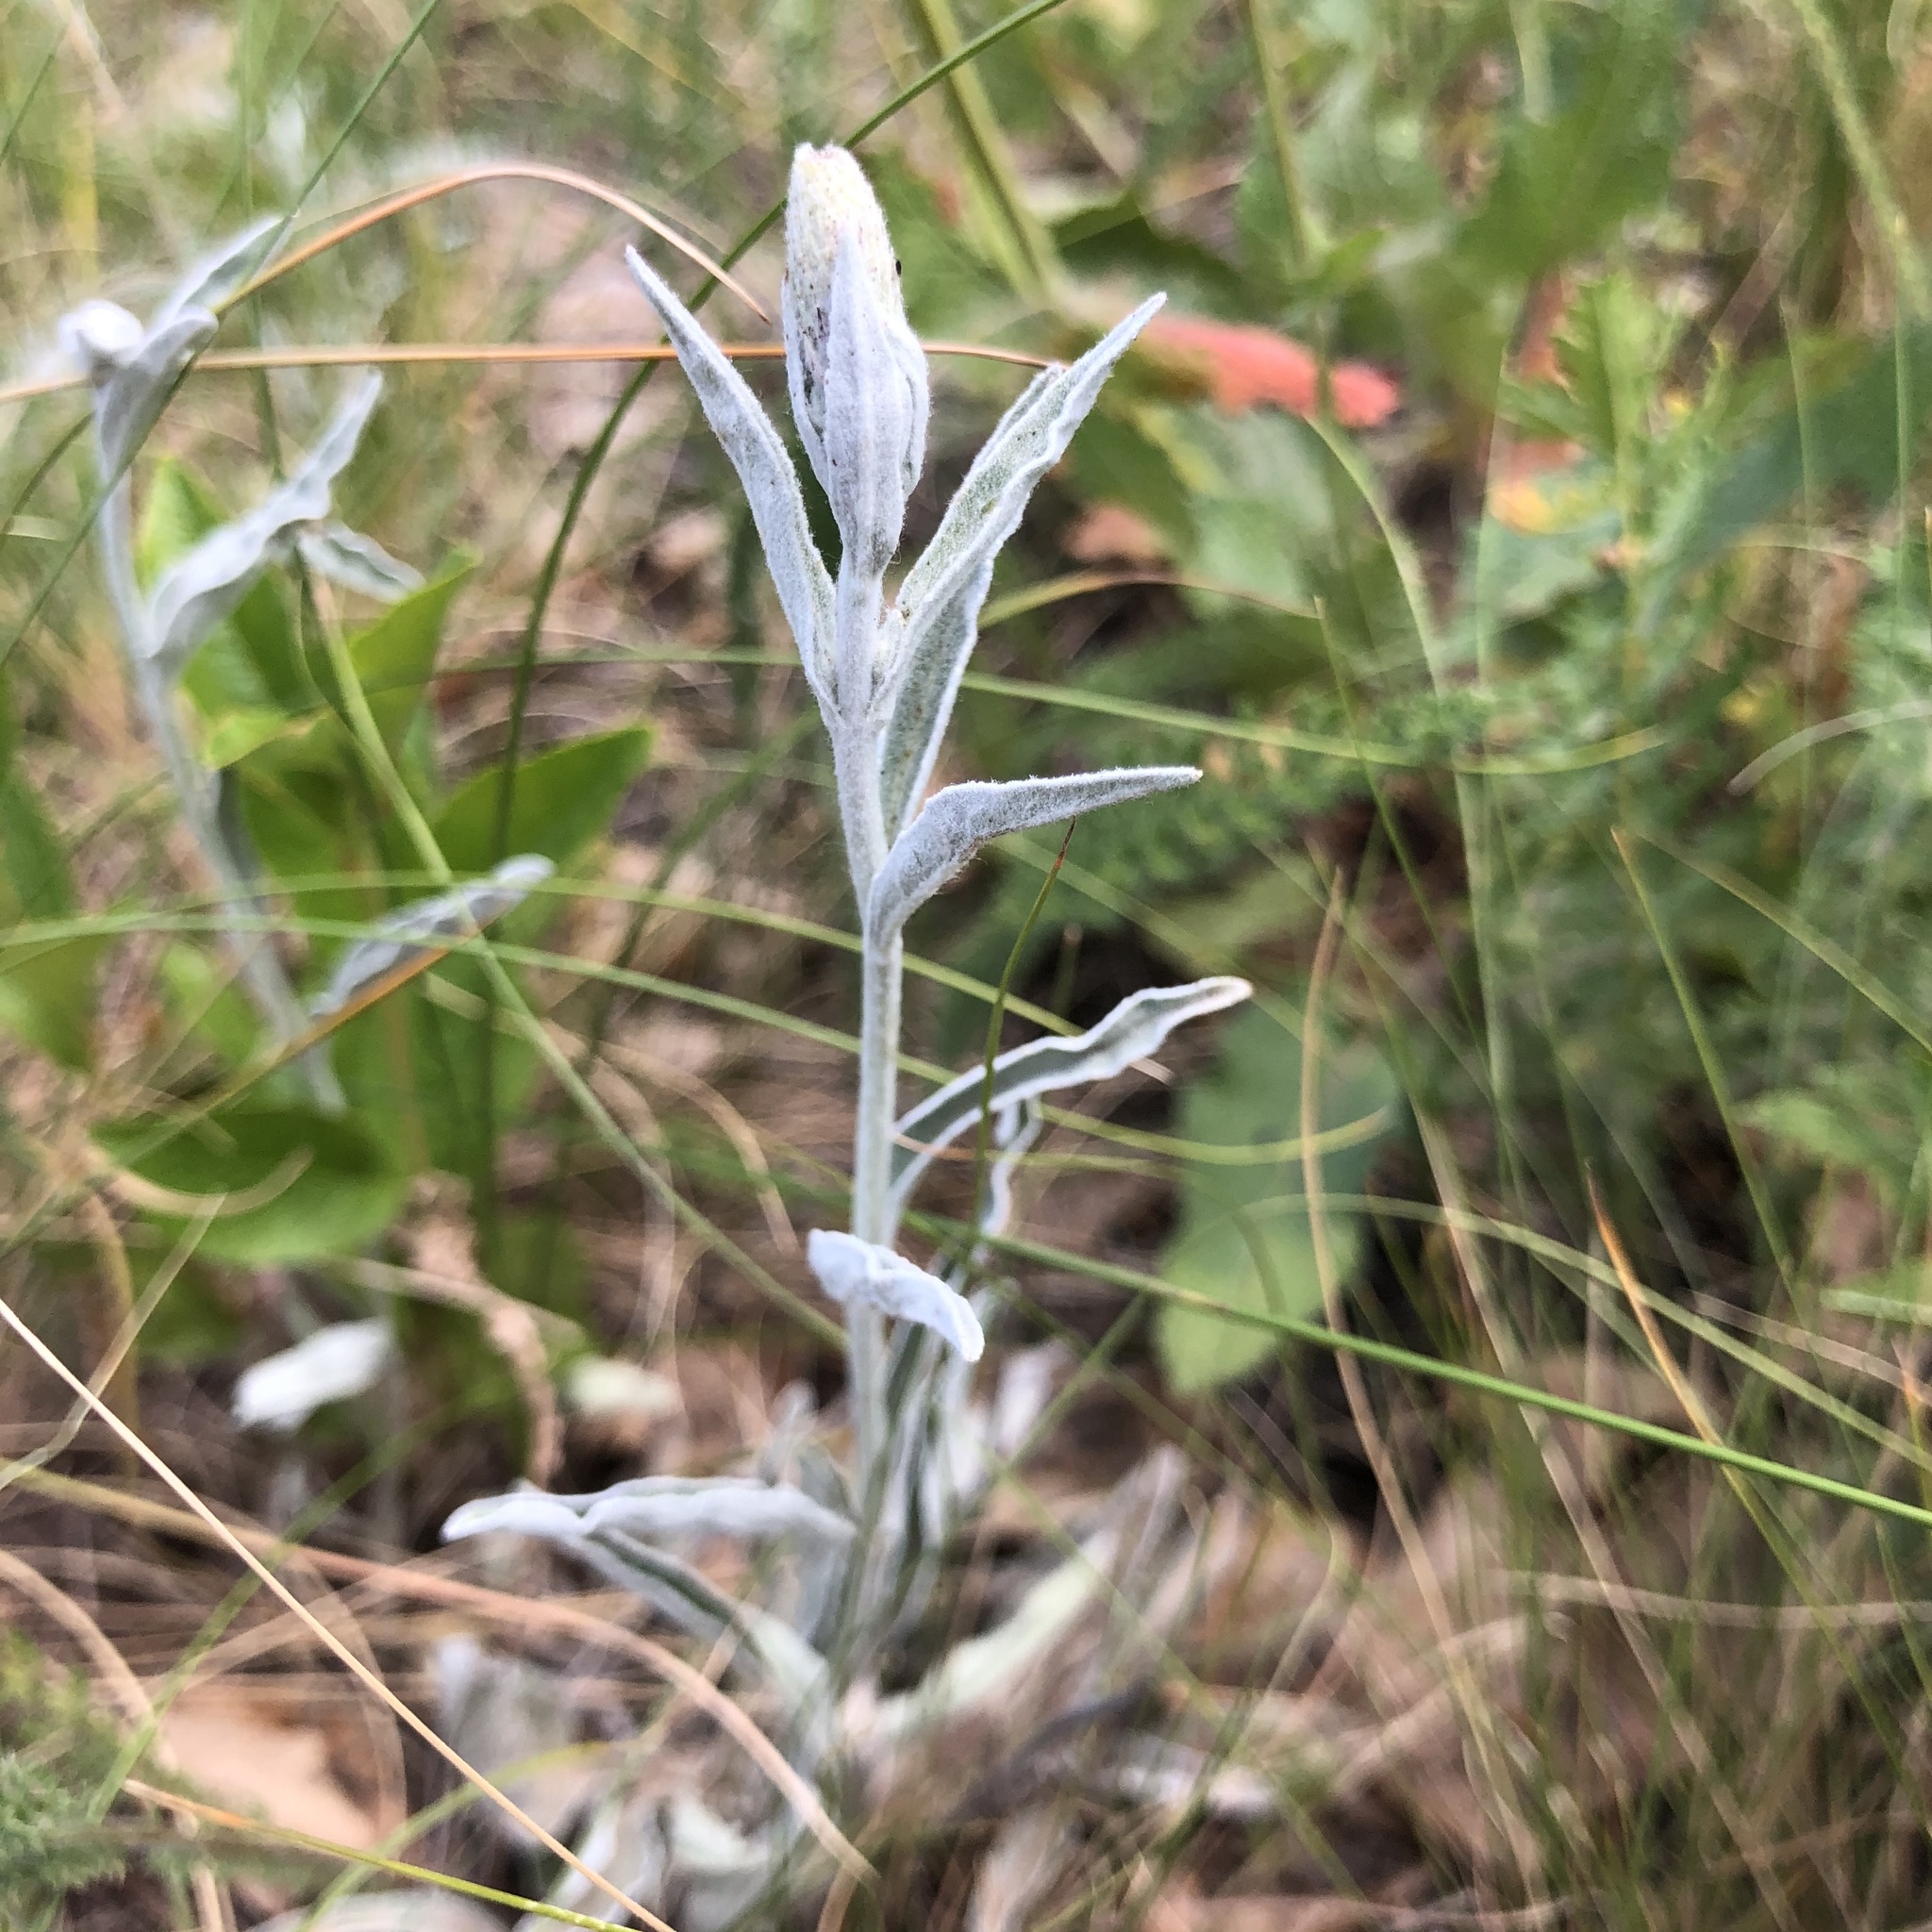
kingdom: Plantae
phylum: Tracheophyta
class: Magnoliopsida
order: Lamiales
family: Plantaginaceae
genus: Veronica
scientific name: Veronica incana
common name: Silver speedwell
